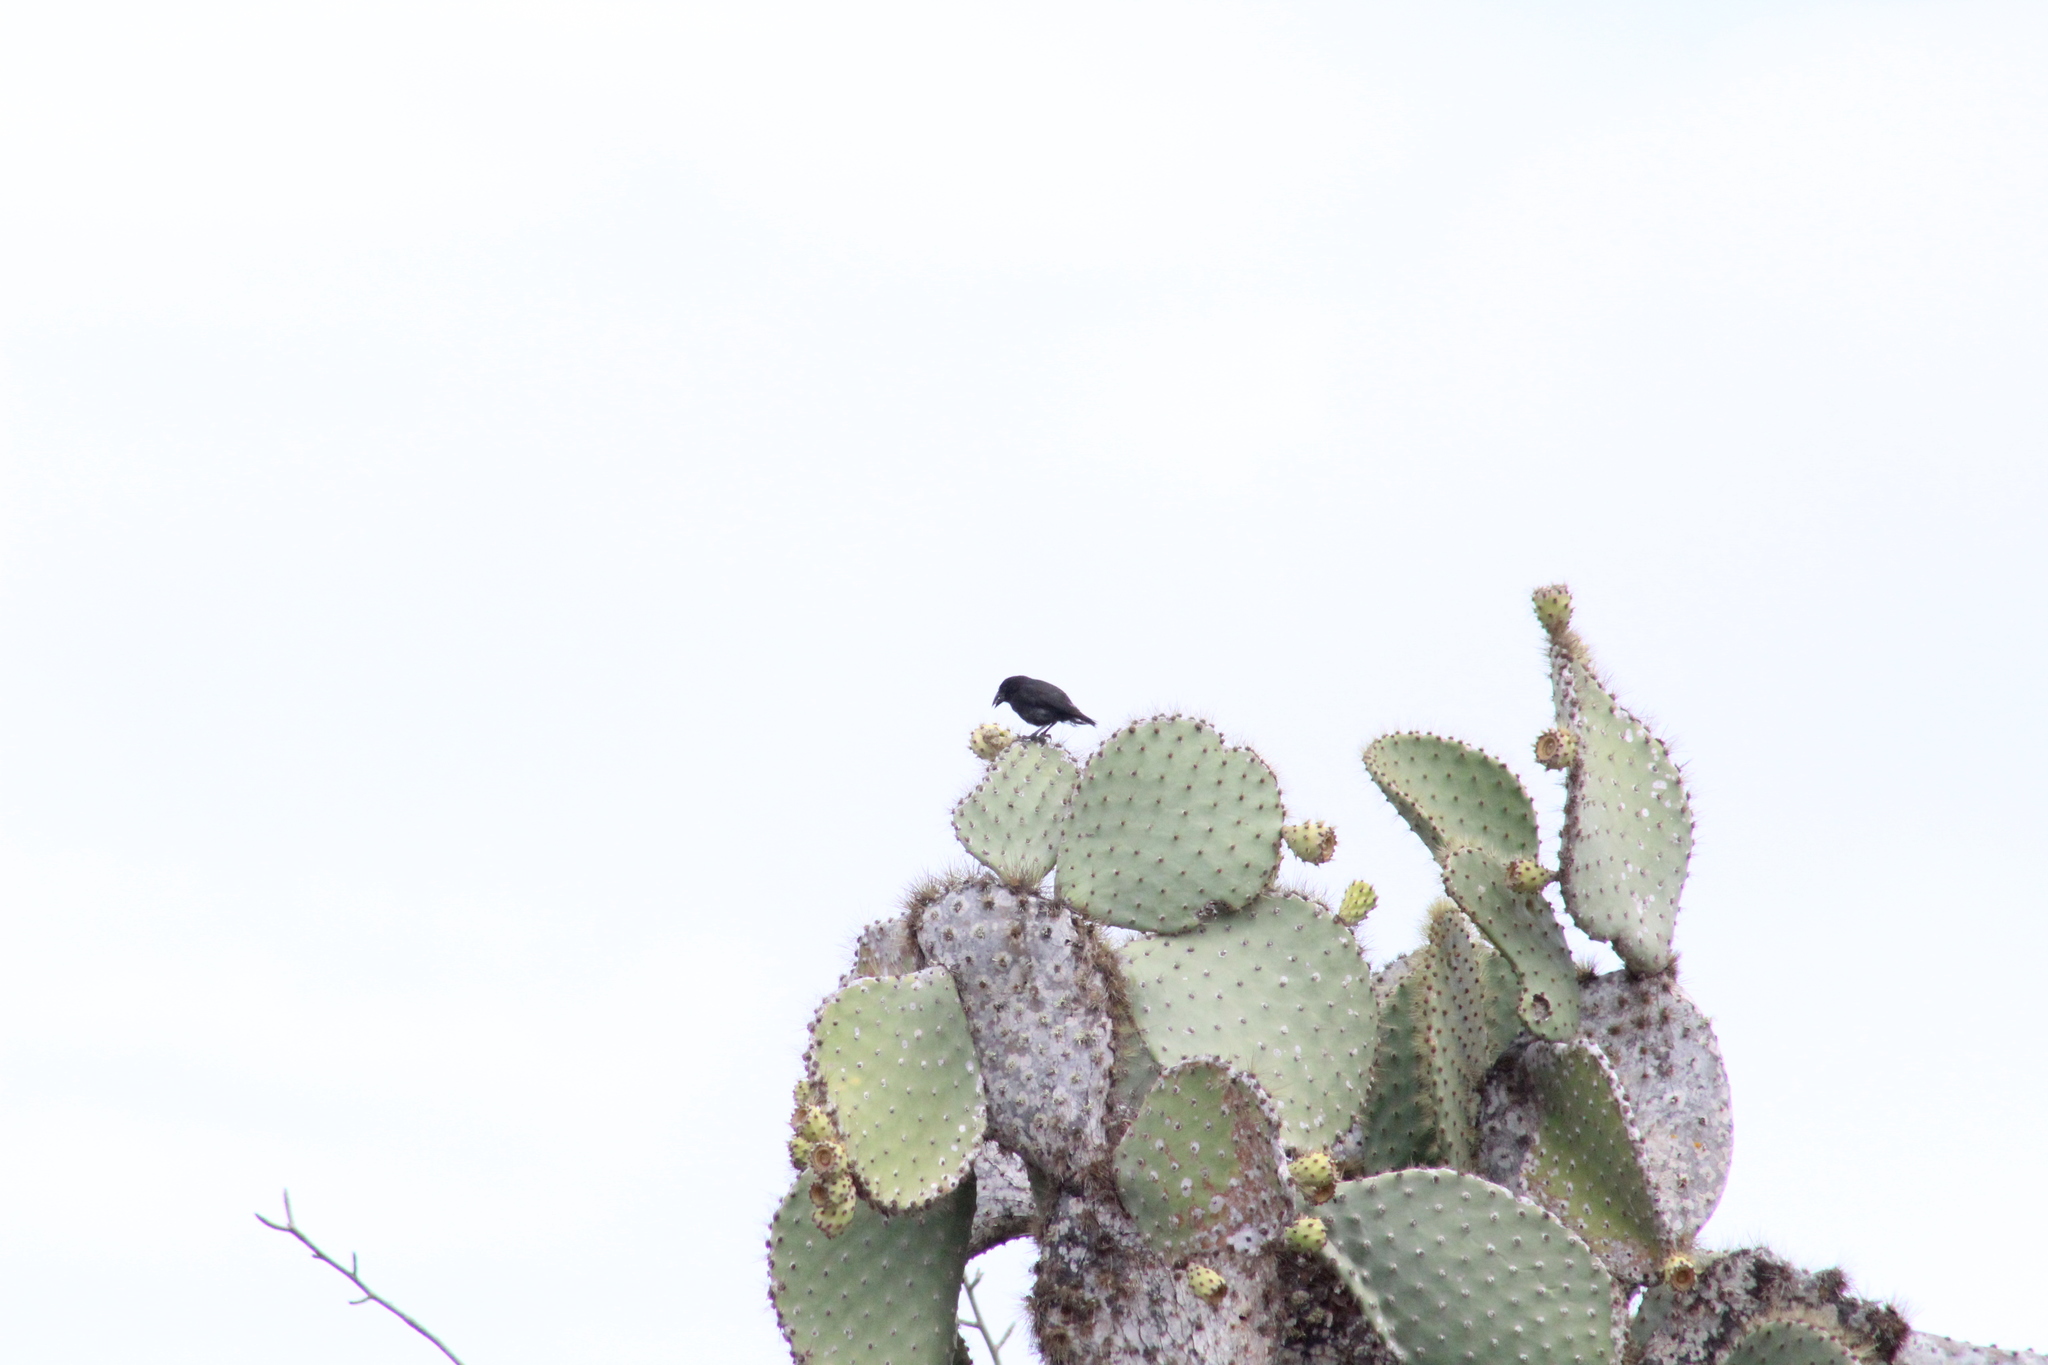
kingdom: Animalia
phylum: Chordata
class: Aves
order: Passeriformes
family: Thraupidae
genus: Geospiza
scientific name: Geospiza scandens
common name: Common cactus-finch
